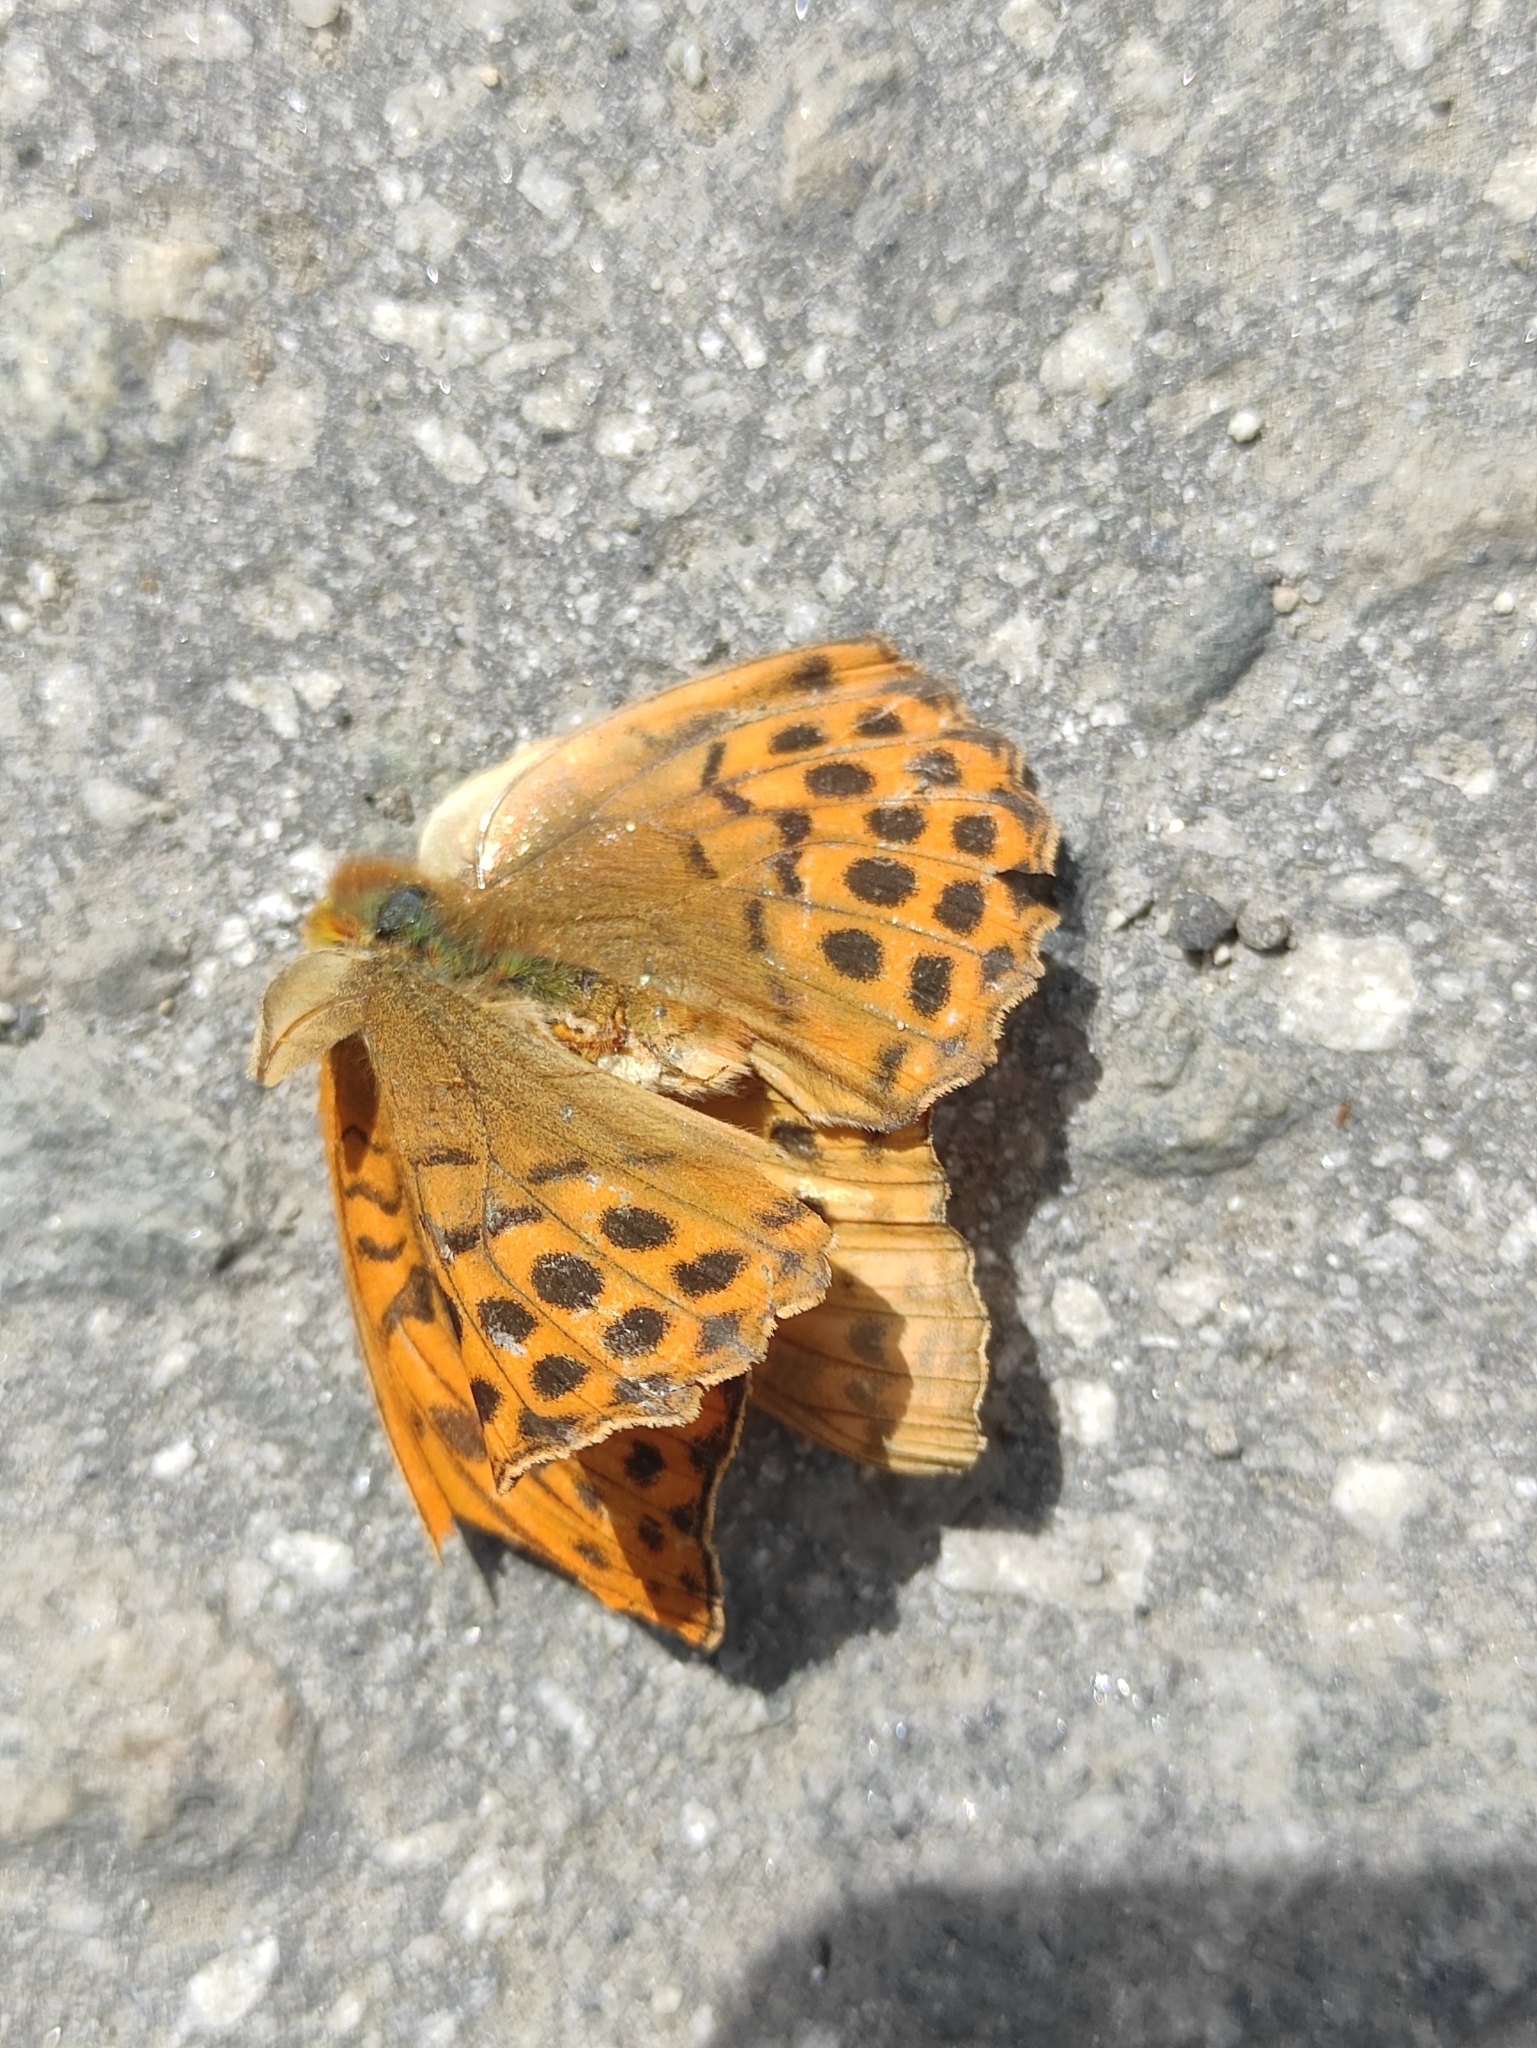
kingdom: Animalia
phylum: Arthropoda
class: Insecta
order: Lepidoptera
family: Nymphalidae
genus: Argynnis
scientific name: Argynnis paphia
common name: Silver-washed fritillary
